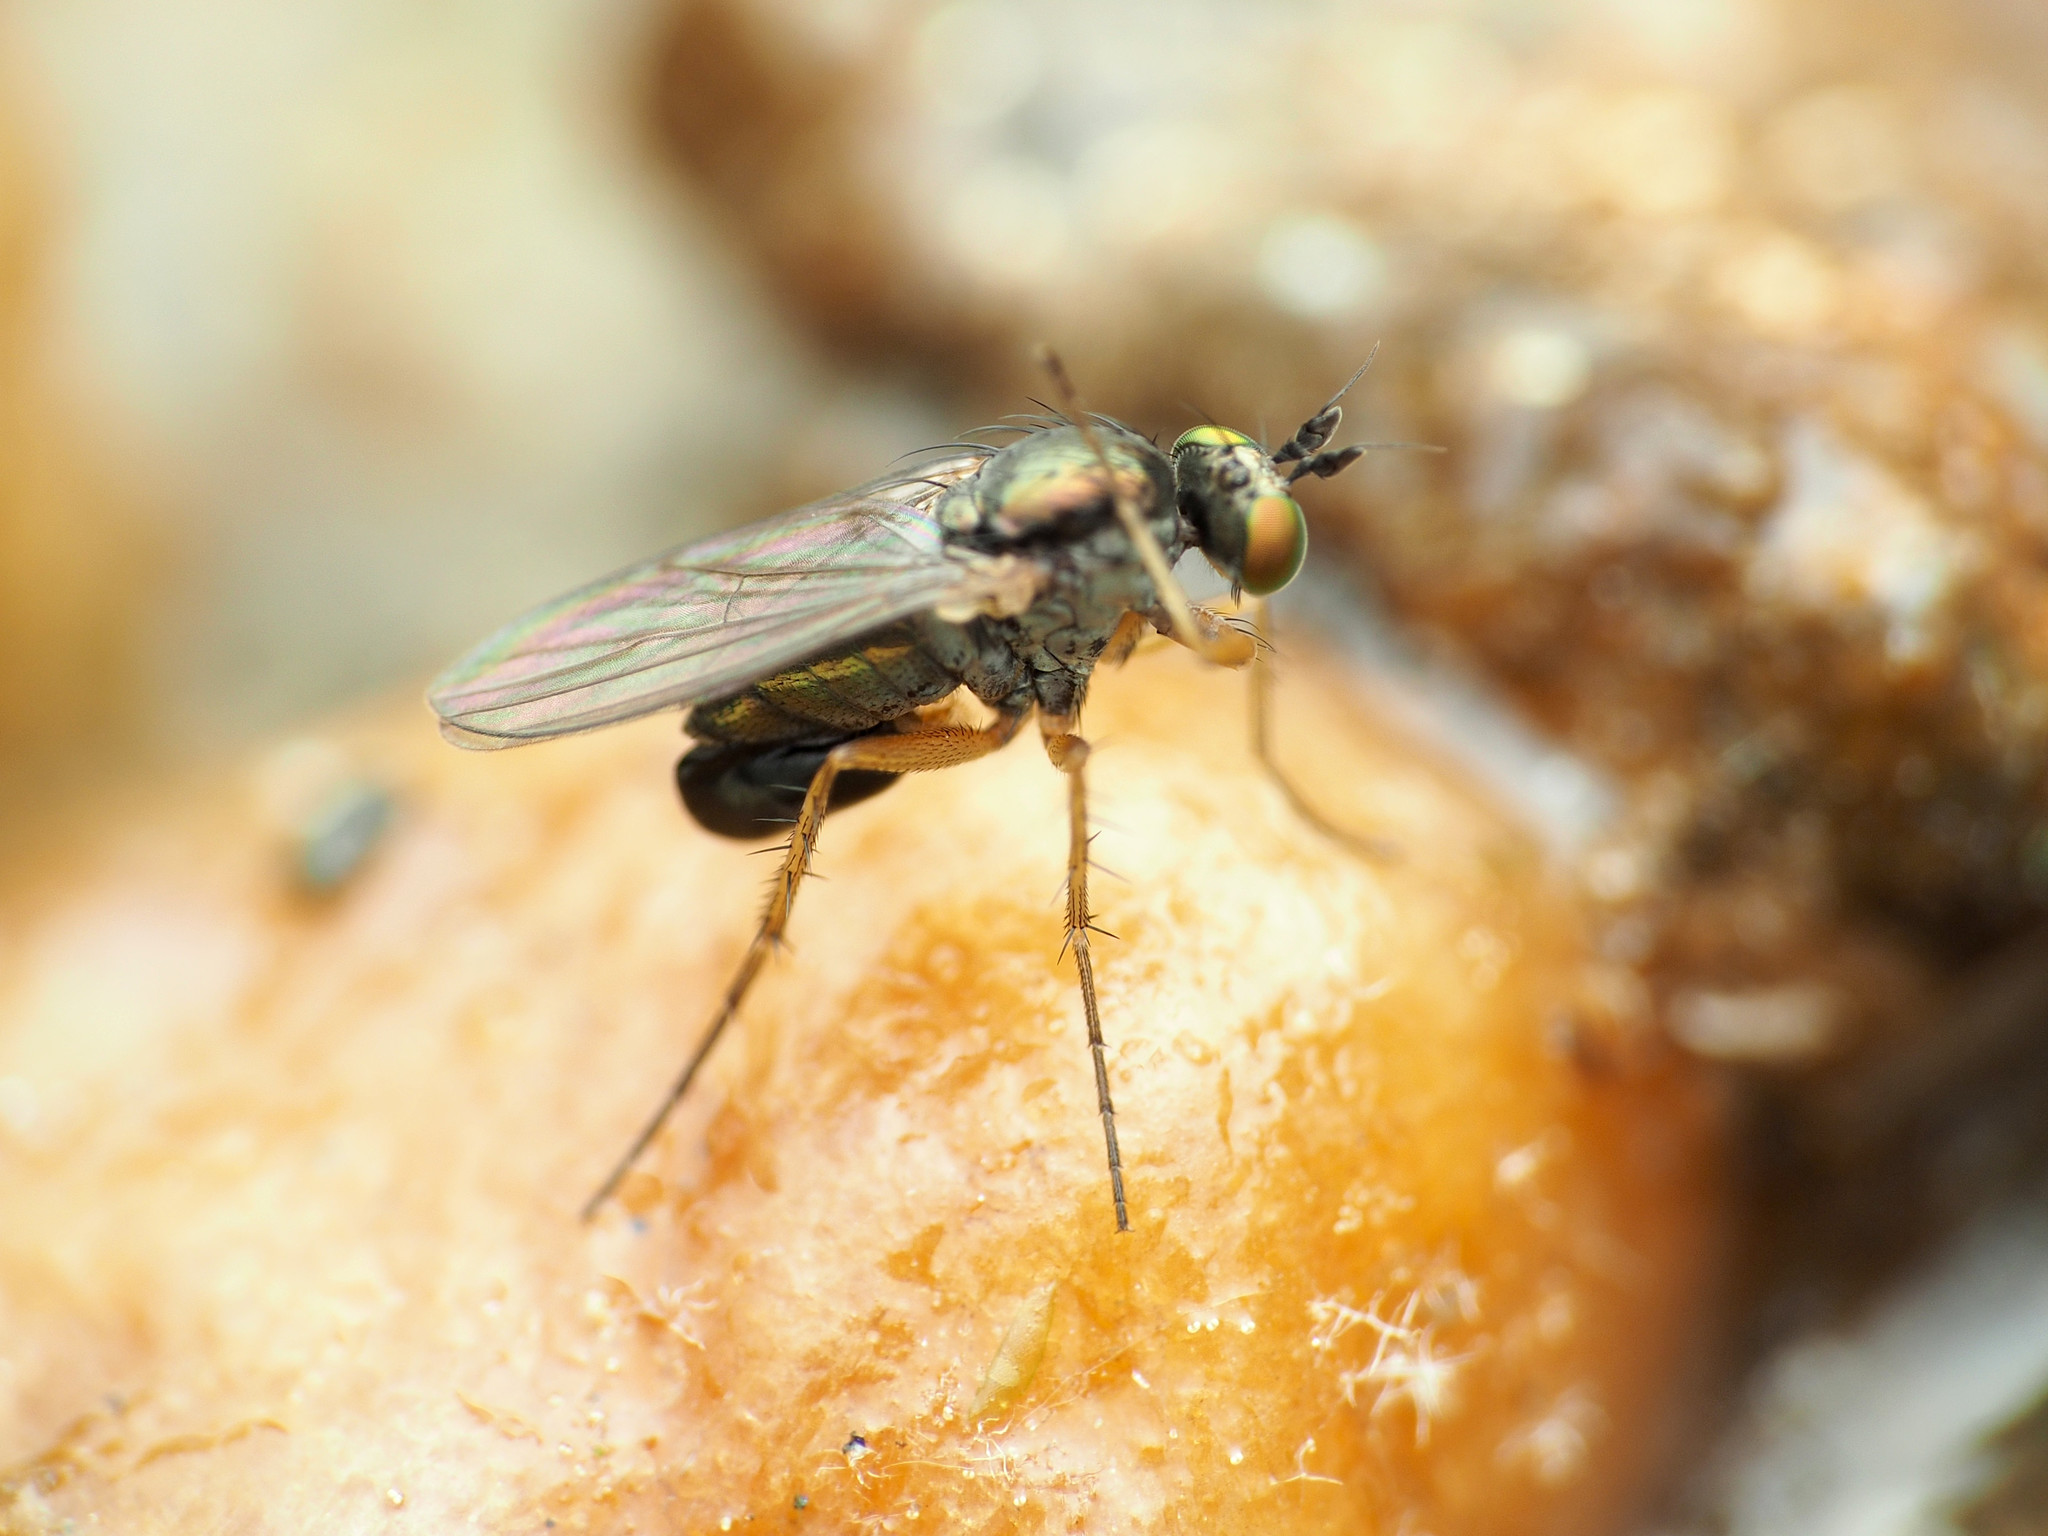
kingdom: Animalia
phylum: Arthropoda
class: Insecta
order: Diptera
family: Dolichopodidae
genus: Gymnopternus
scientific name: Gymnopternus meniscus
